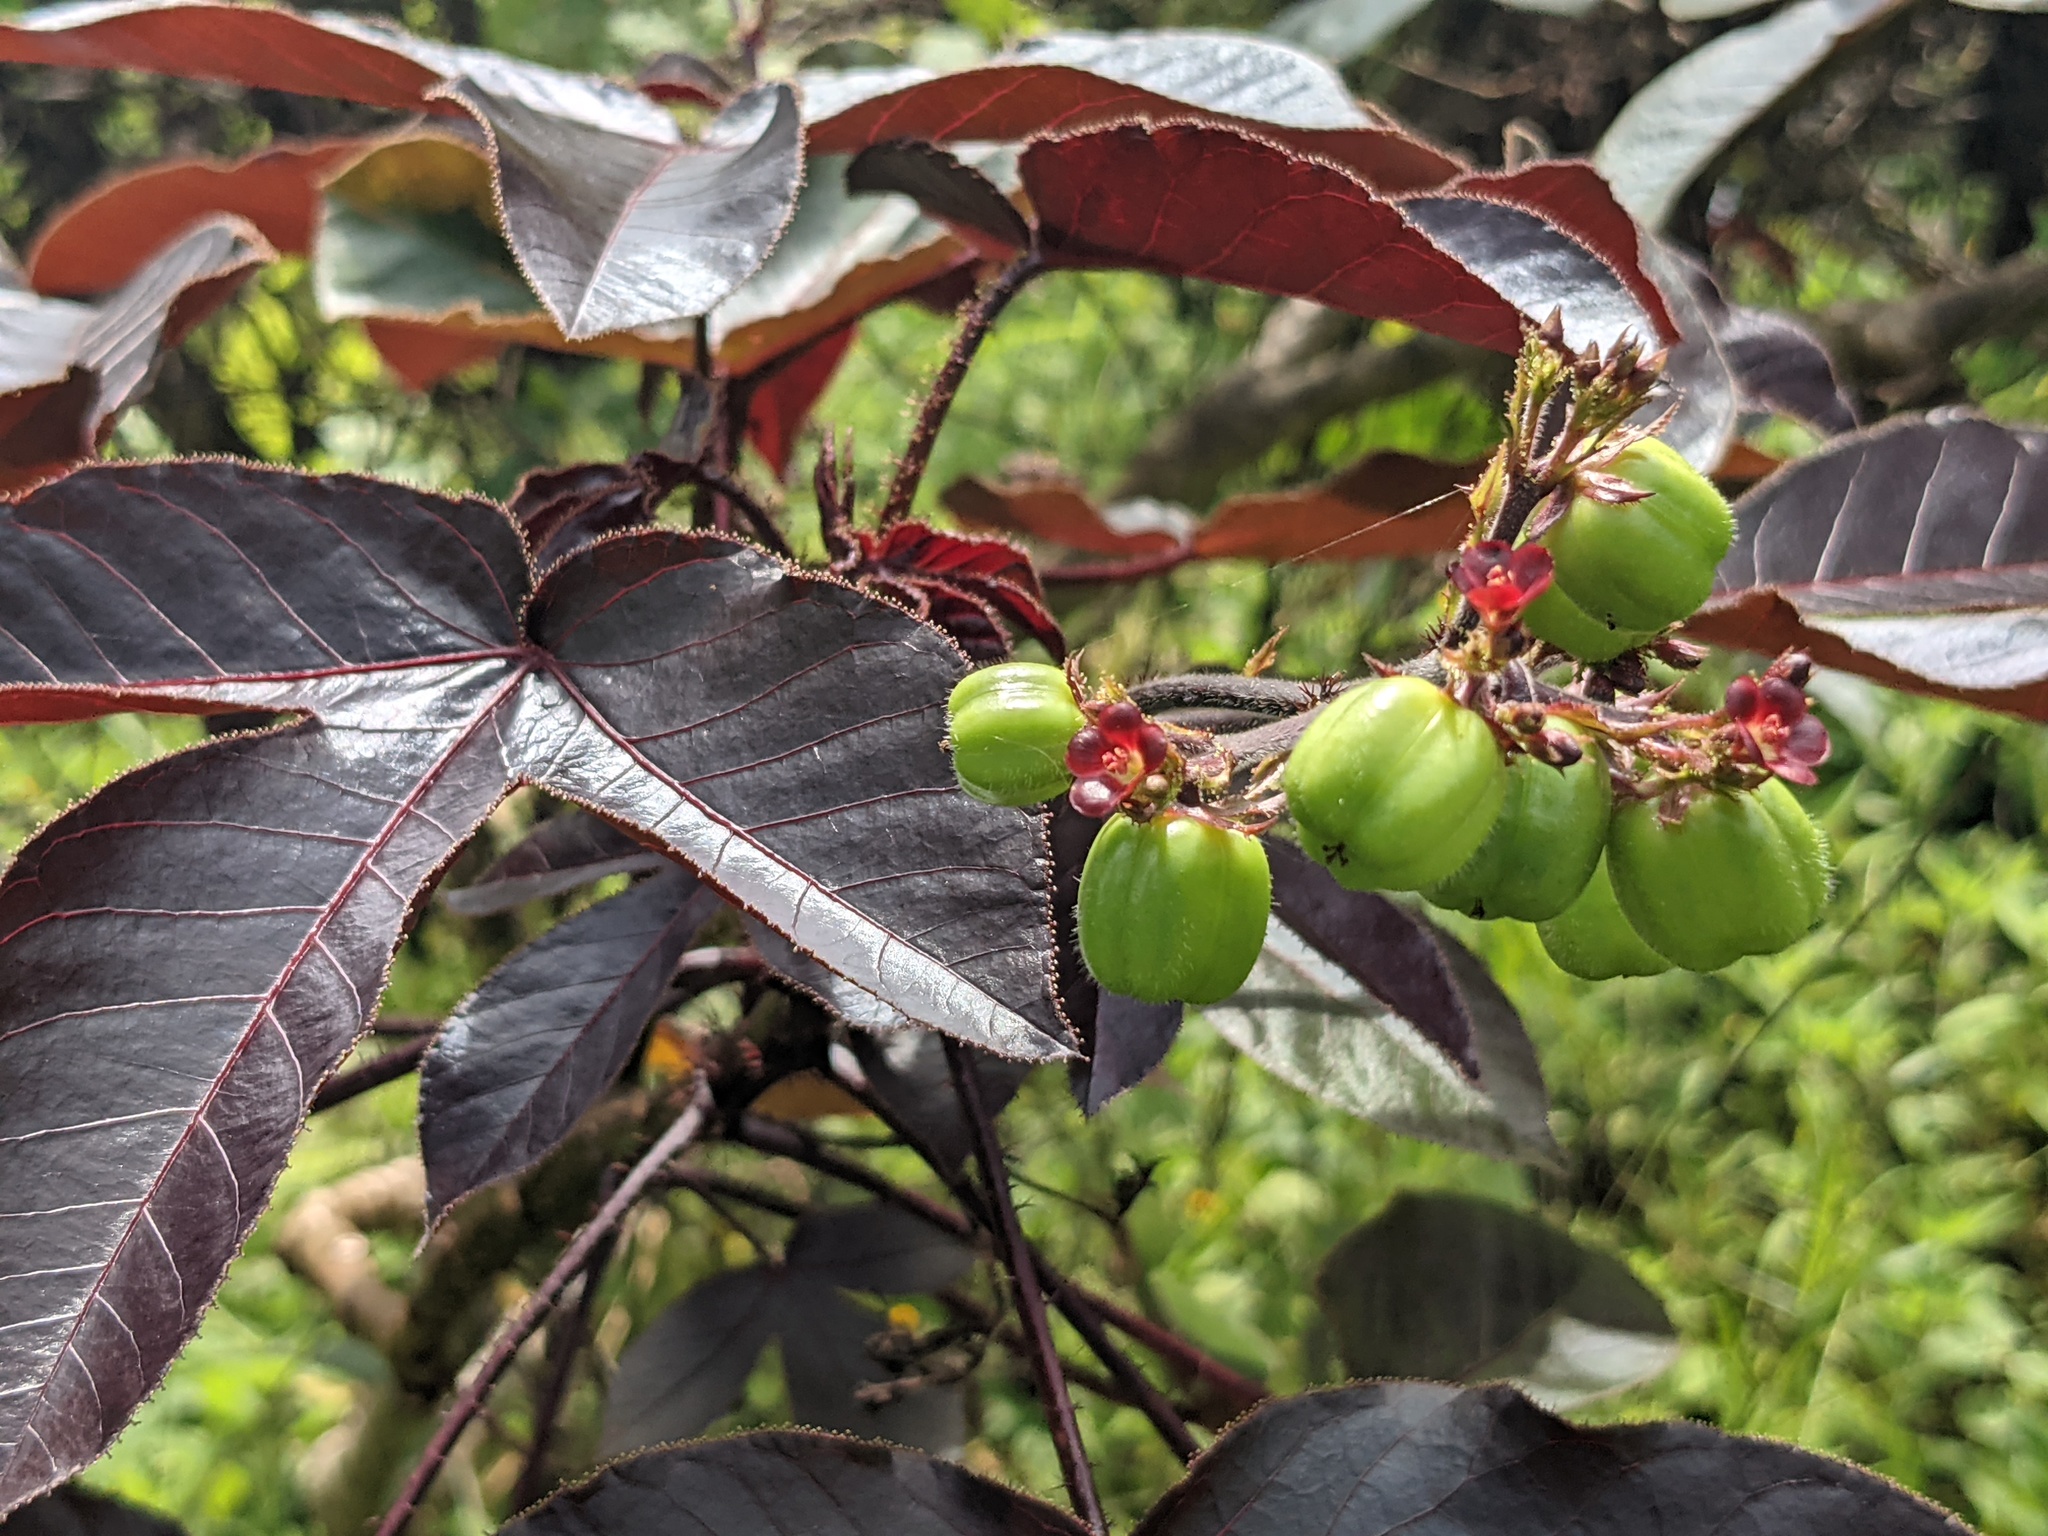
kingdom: Plantae
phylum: Tracheophyta
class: Magnoliopsida
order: Malpighiales
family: Euphorbiaceae
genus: Jatropha
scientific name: Jatropha gossypiifolia
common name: Bellyache bush
